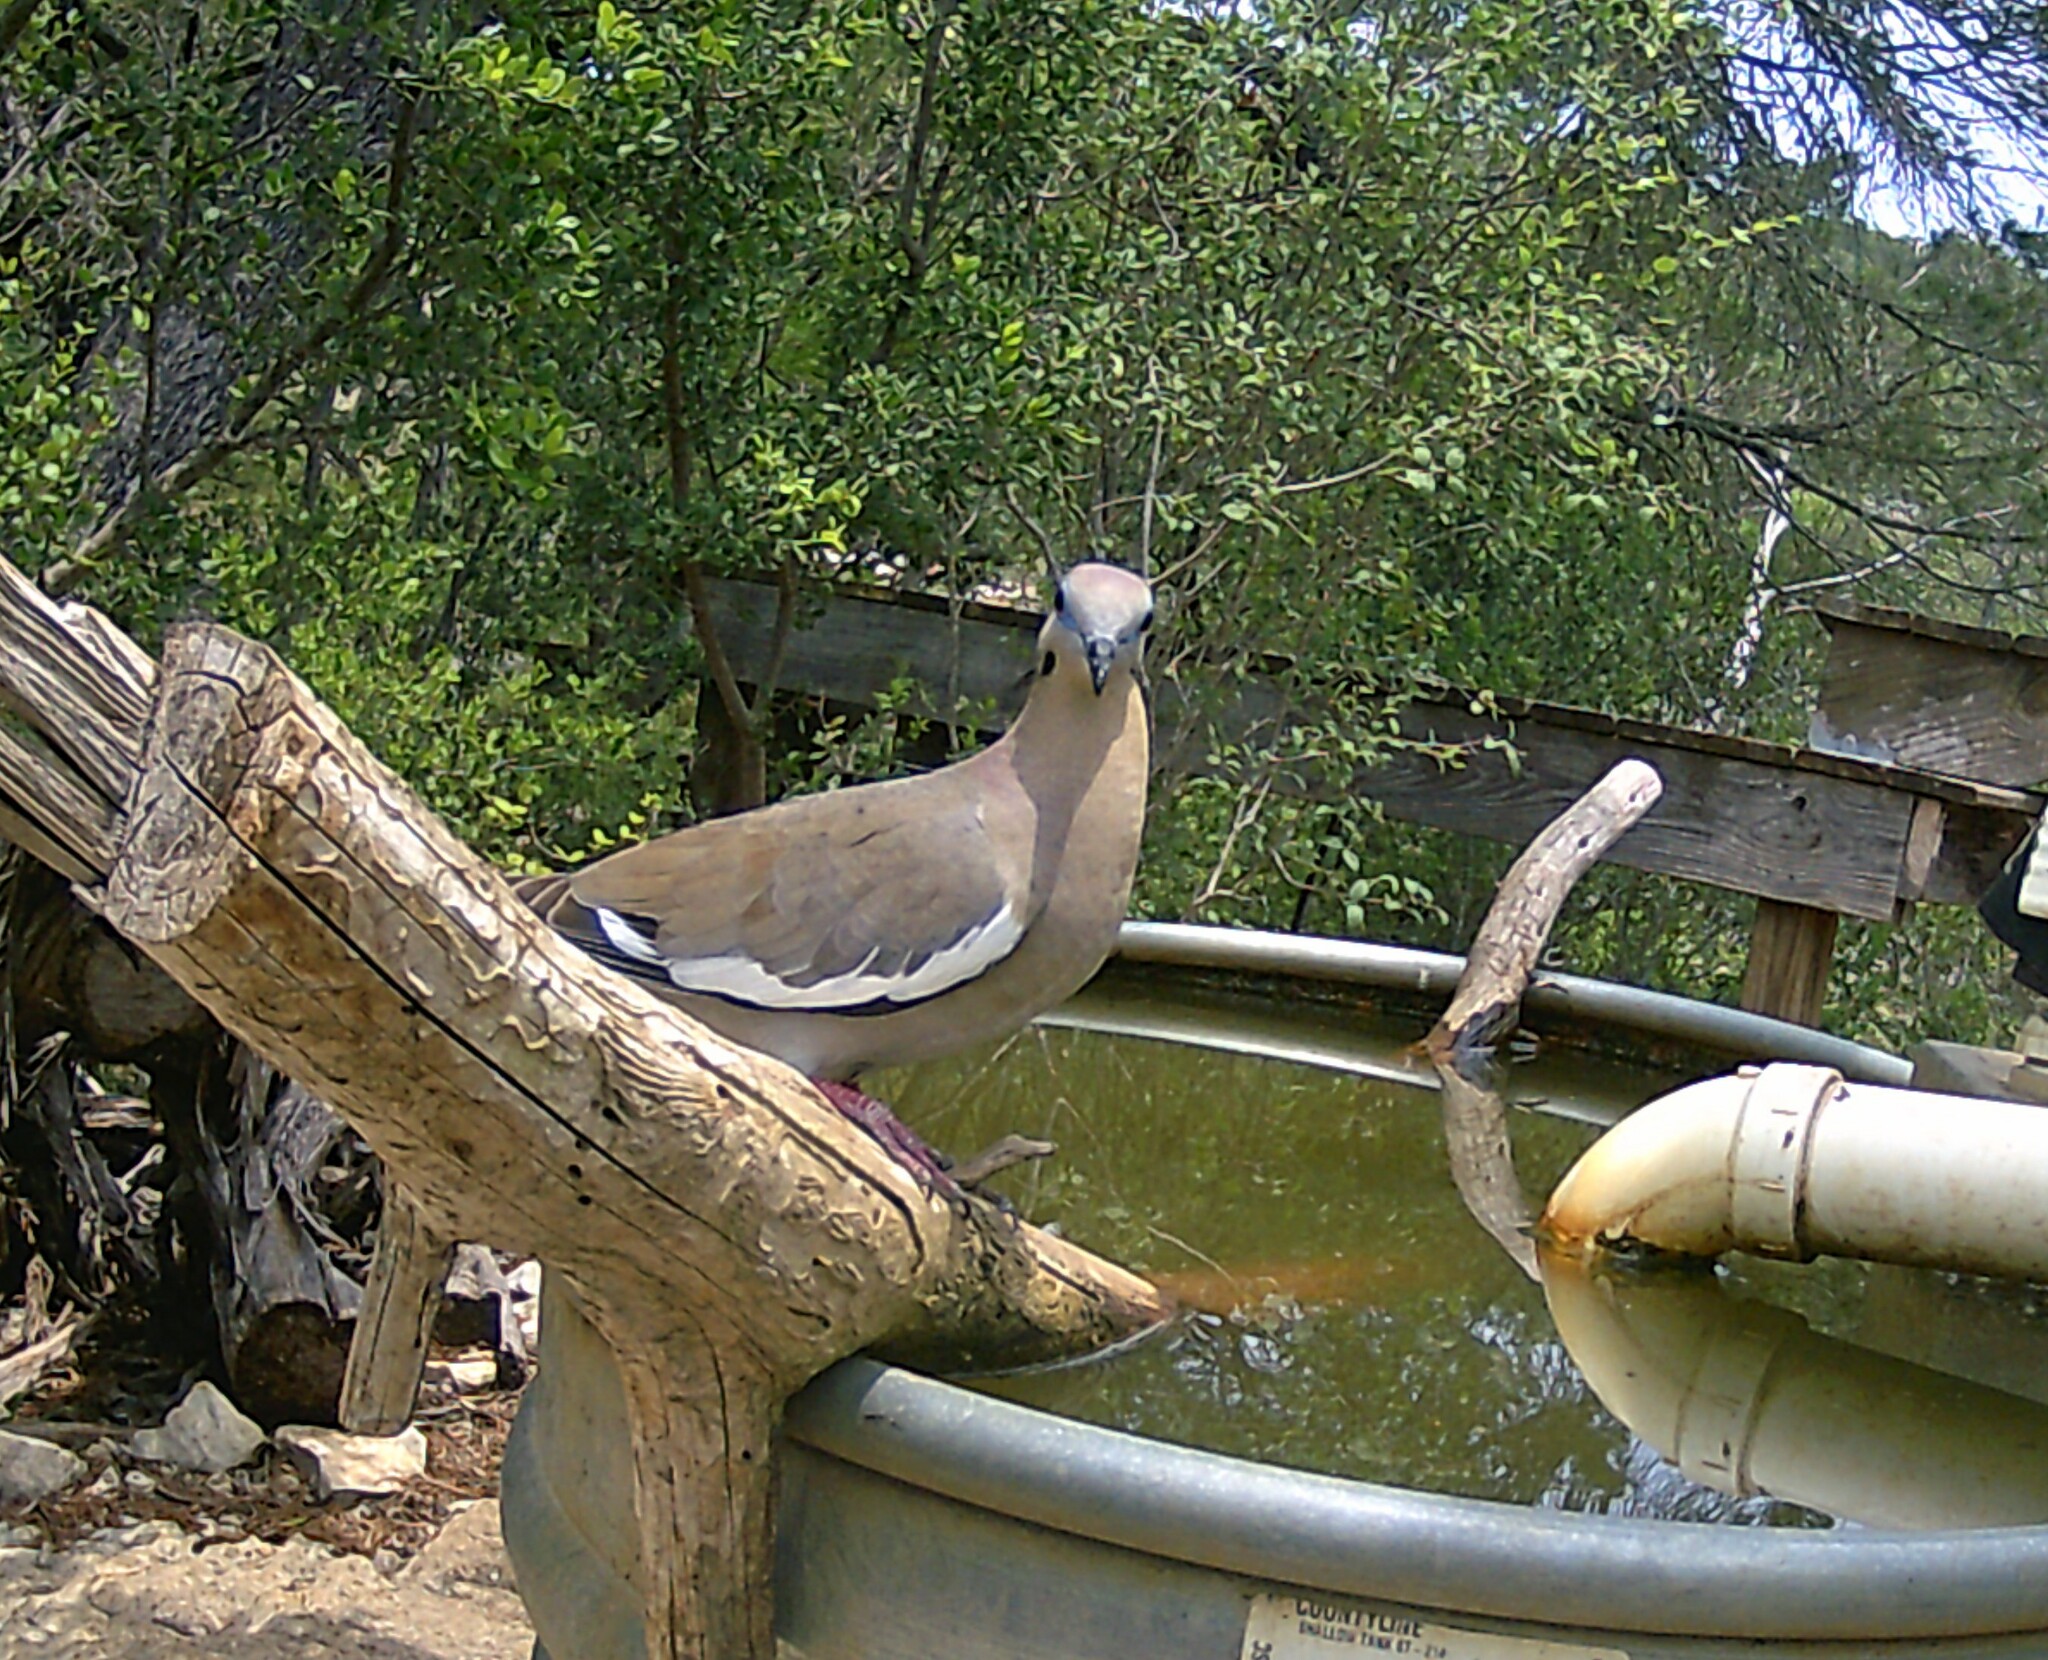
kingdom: Animalia
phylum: Chordata
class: Aves
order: Columbiformes
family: Columbidae
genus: Zenaida
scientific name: Zenaida asiatica
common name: White-winged dove
